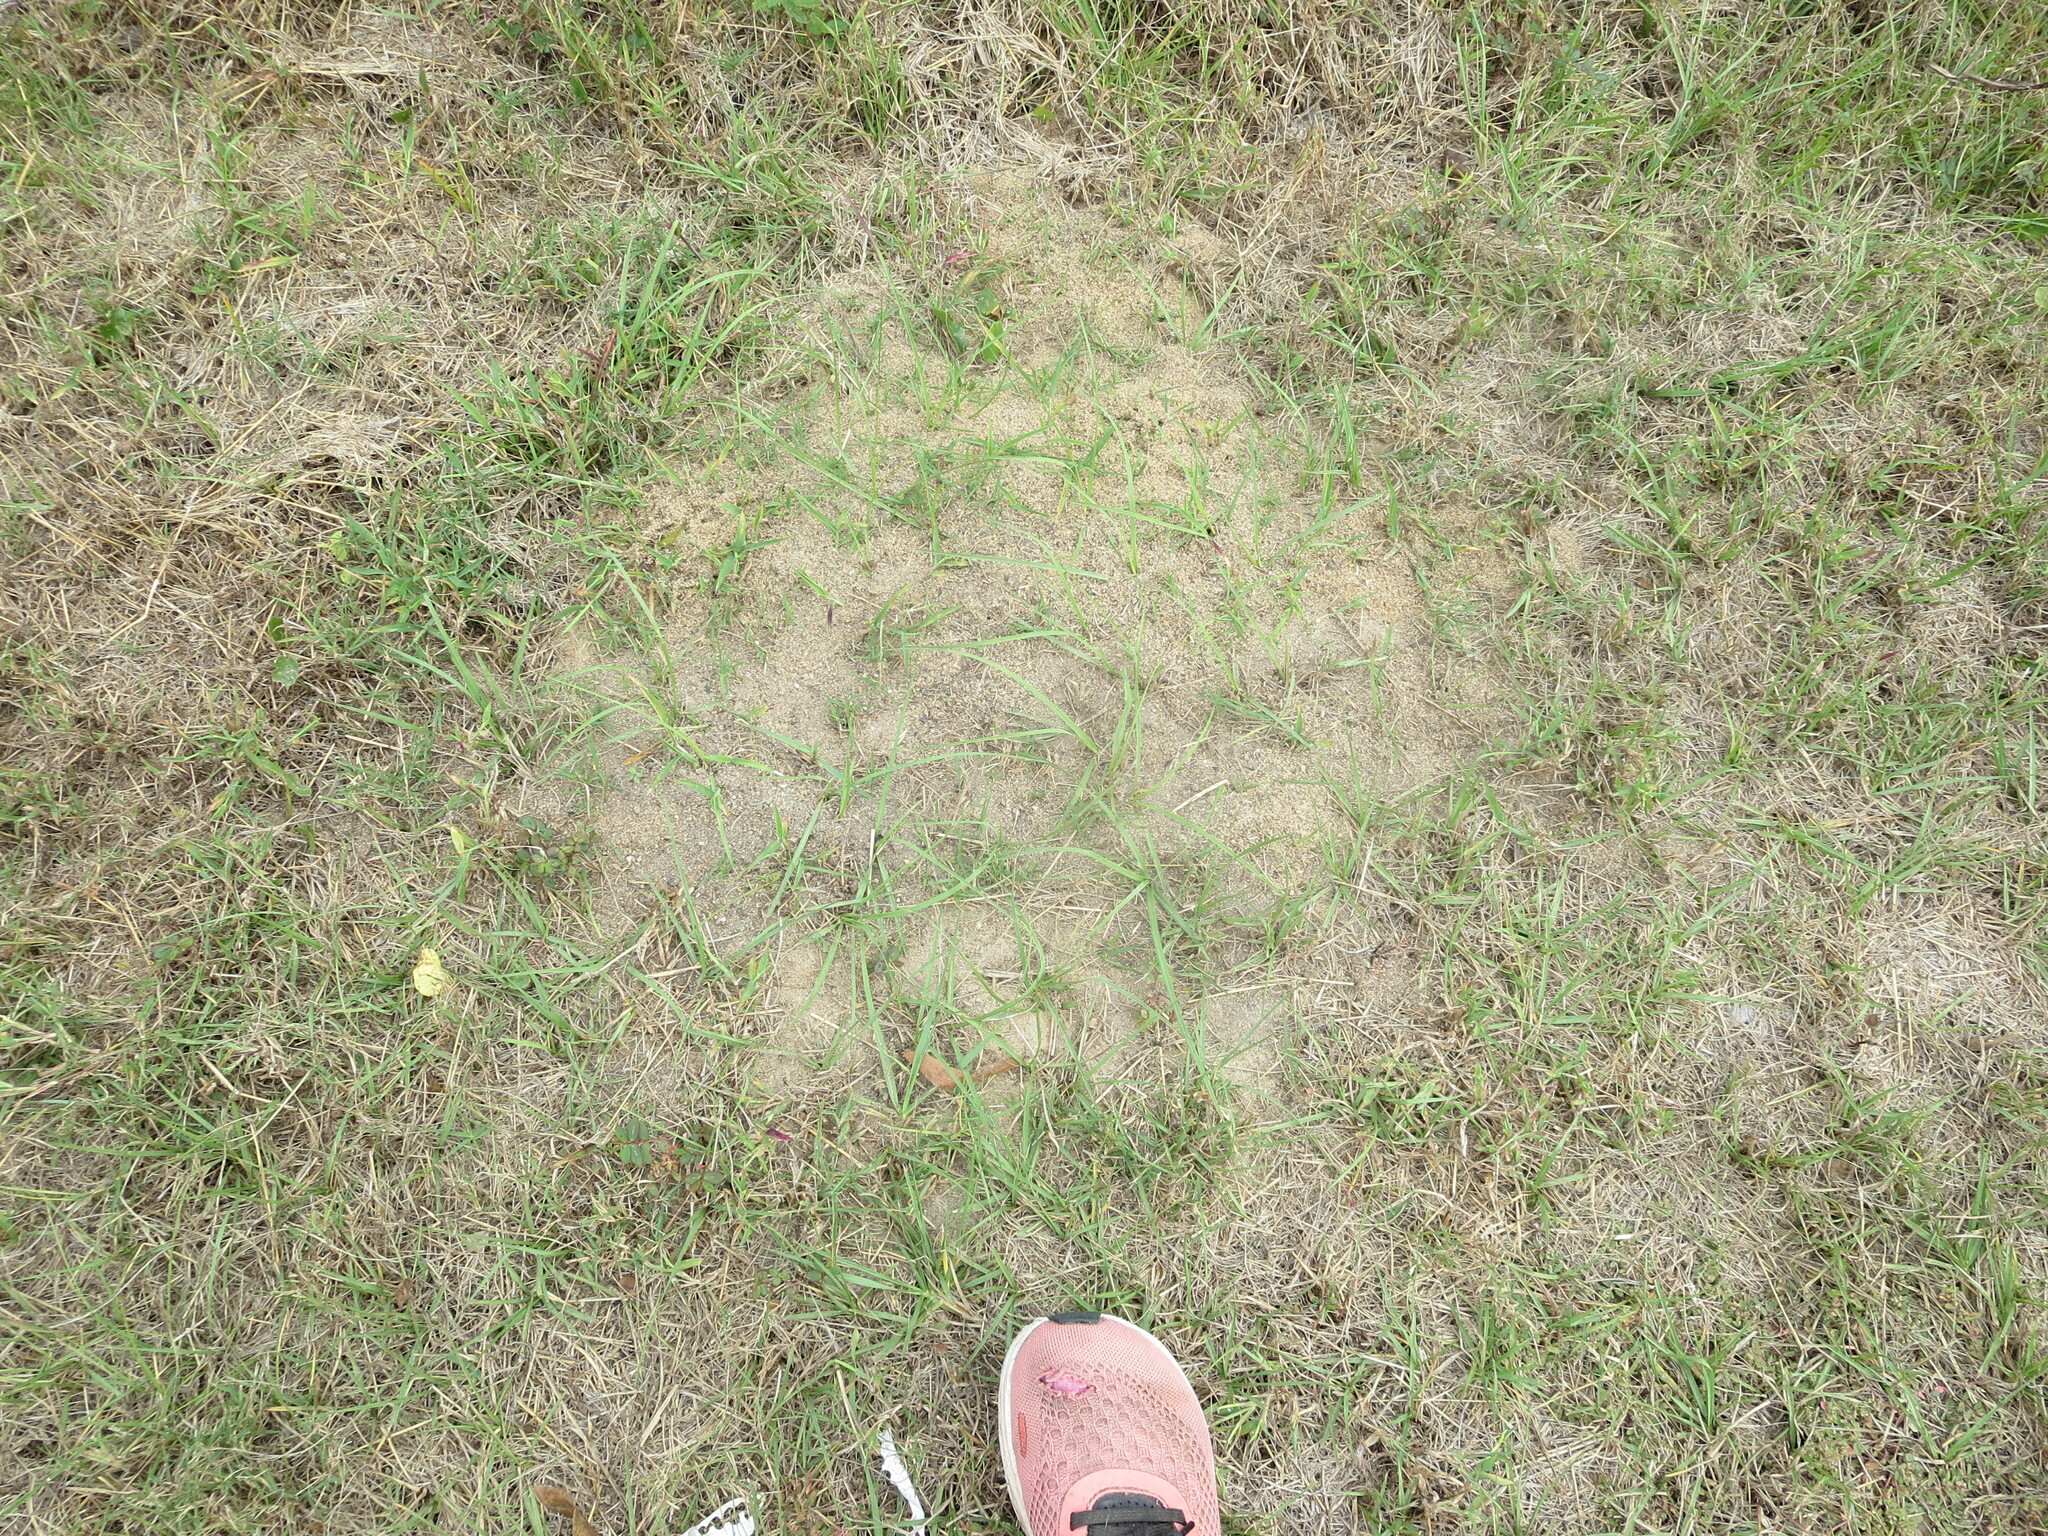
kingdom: Animalia
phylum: Arthropoda
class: Insecta
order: Hymenoptera
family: Formicidae
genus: Solenopsis
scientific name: Solenopsis invicta
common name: Red imported fire ant
